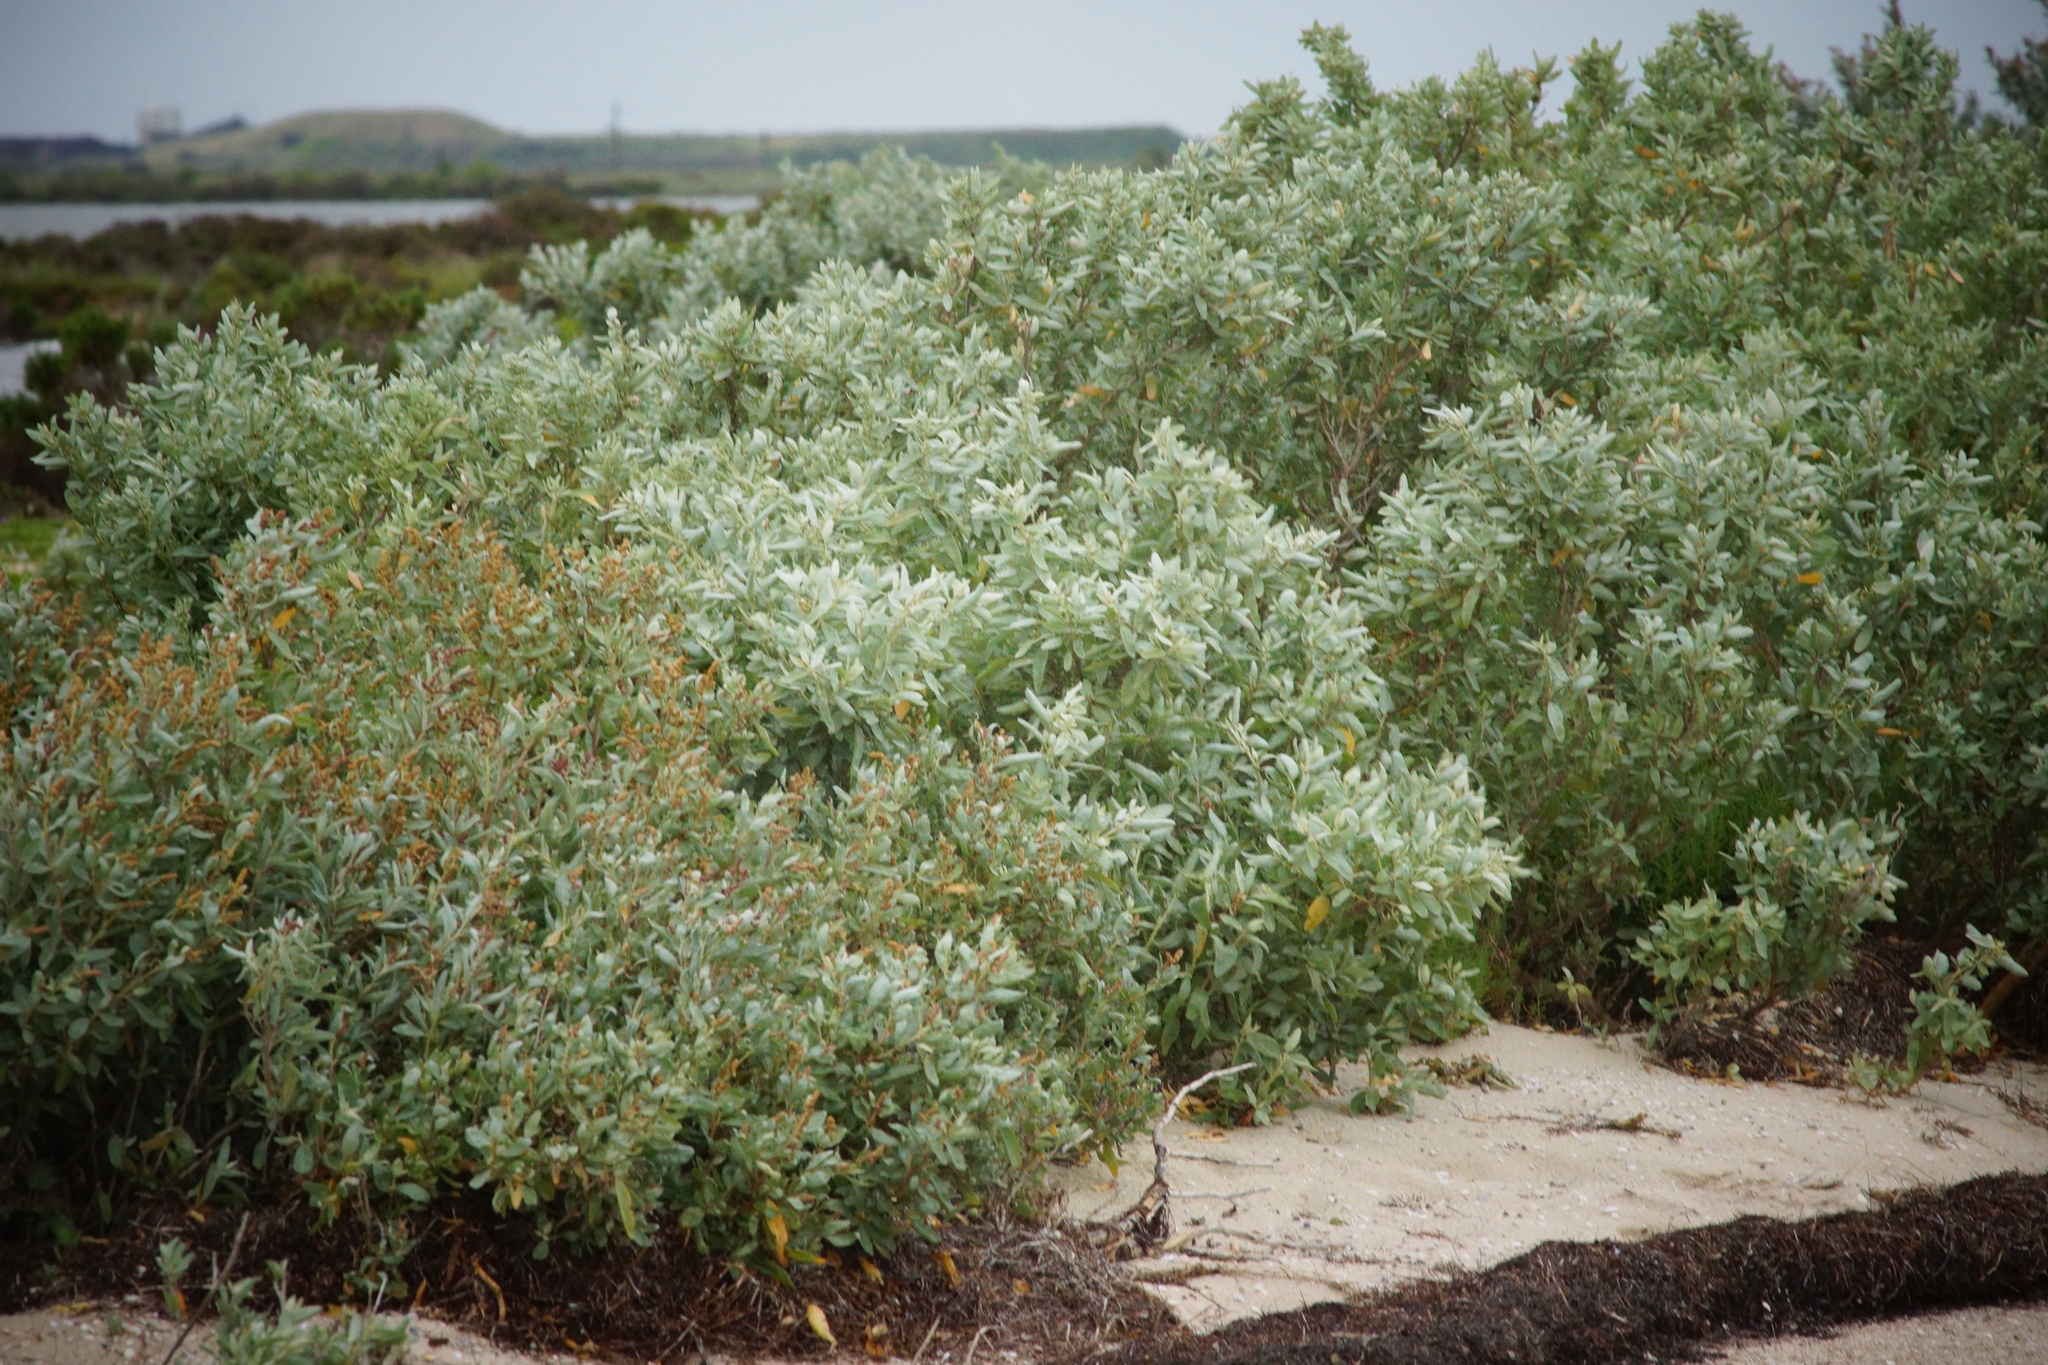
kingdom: Plantae
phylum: Tracheophyta
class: Magnoliopsida
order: Caryophyllales
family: Amaranthaceae
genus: Atriplex
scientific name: Atriplex cinerea
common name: Grey saltbush
